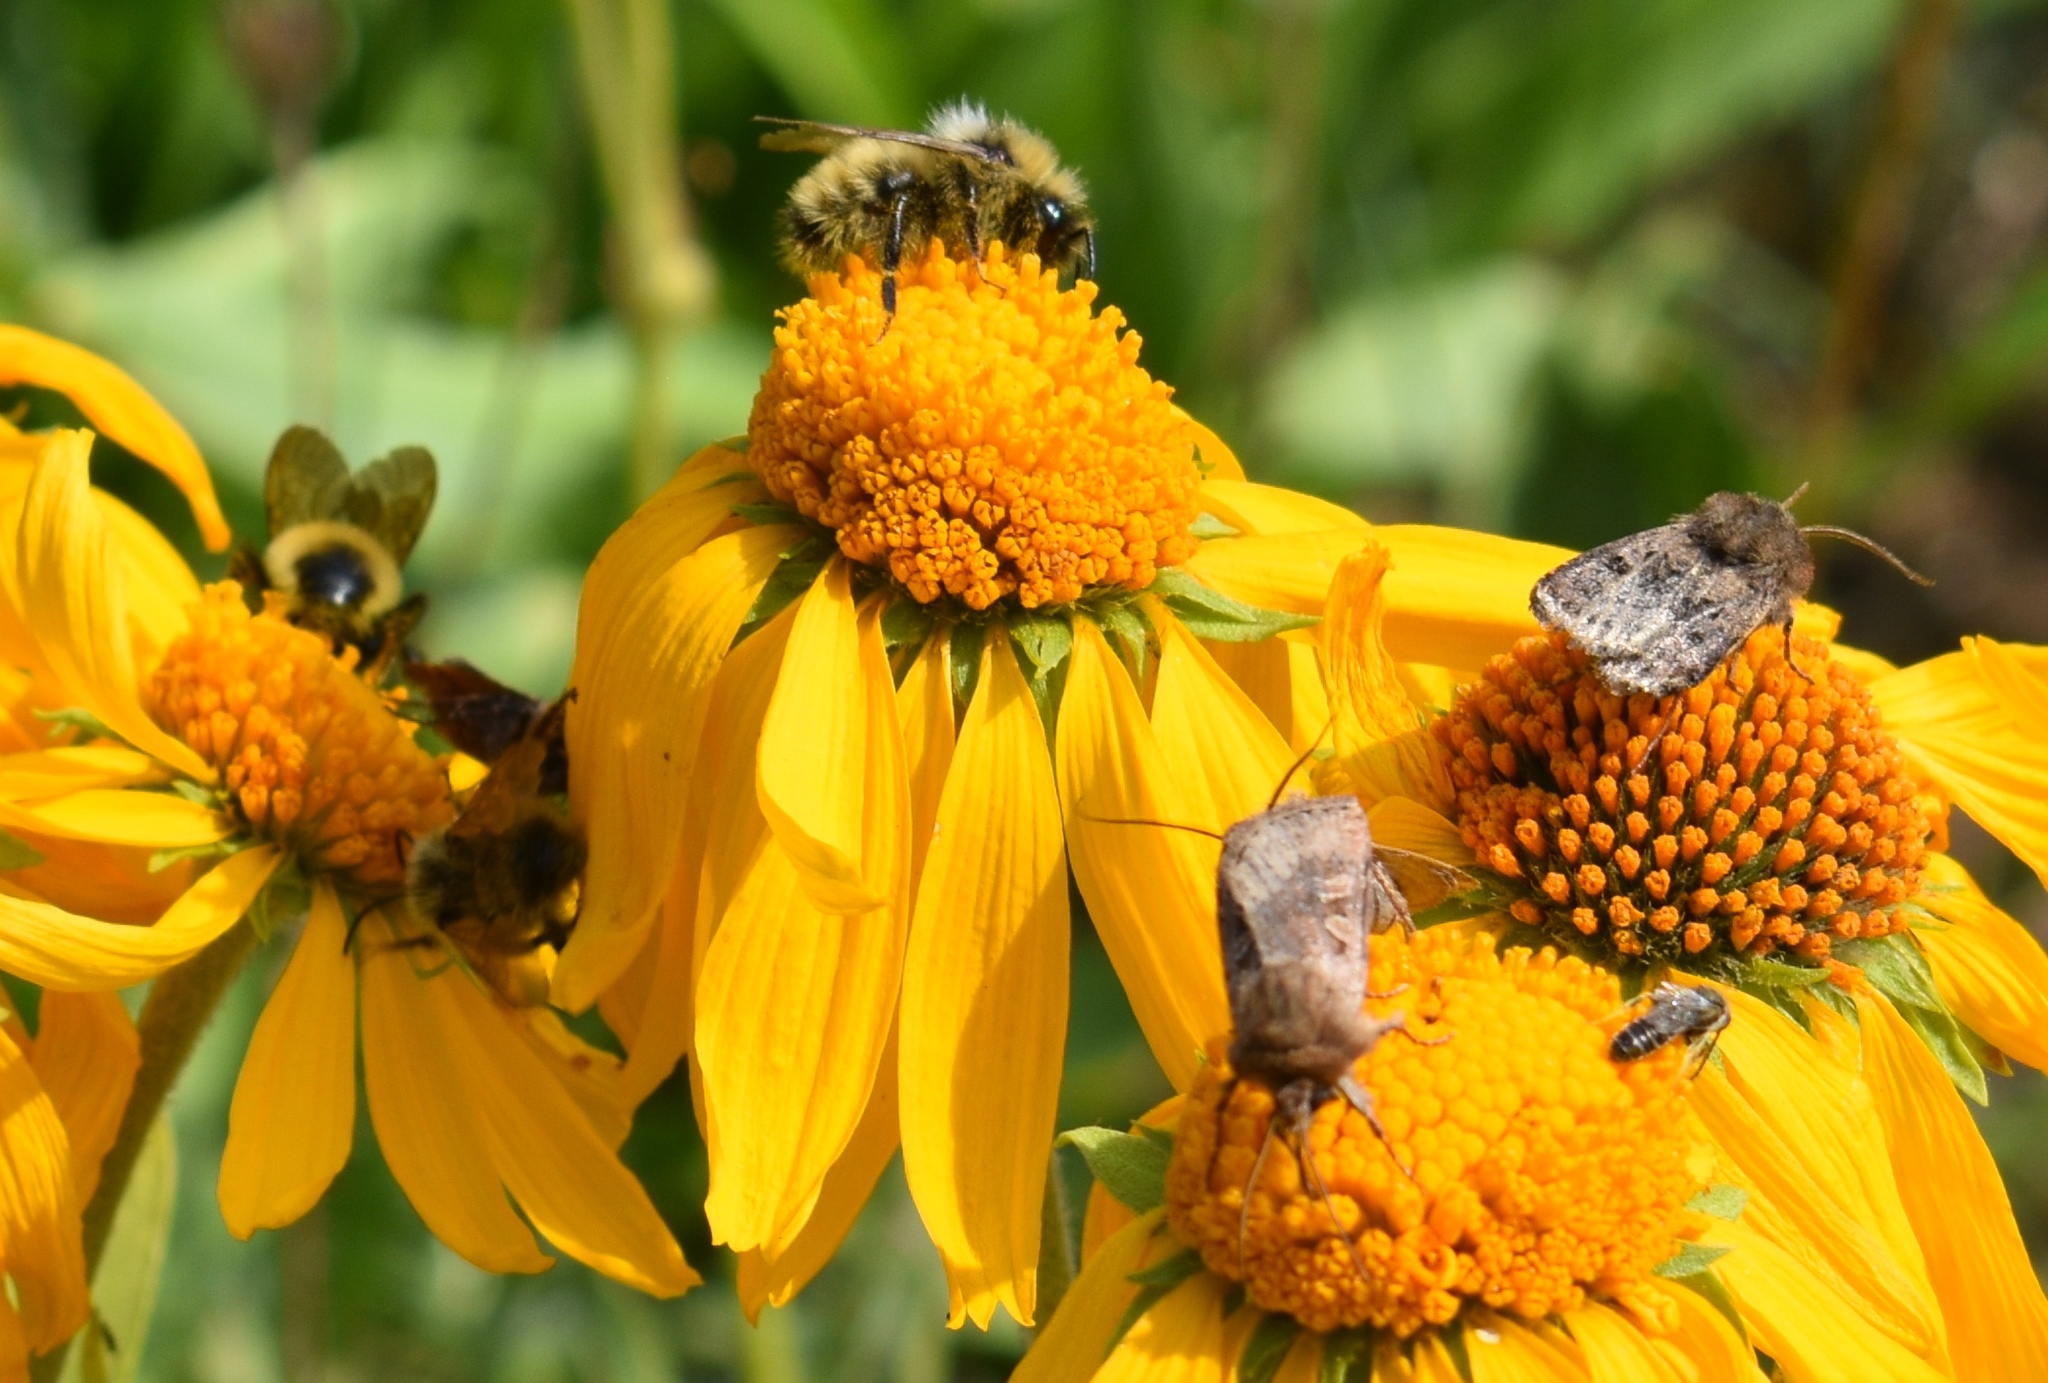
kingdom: Animalia
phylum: Arthropoda
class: Insecta
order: Hymenoptera
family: Apidae
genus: Bombus
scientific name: Bombus insularis
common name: Indiscriminate cuckoo bumble bee
